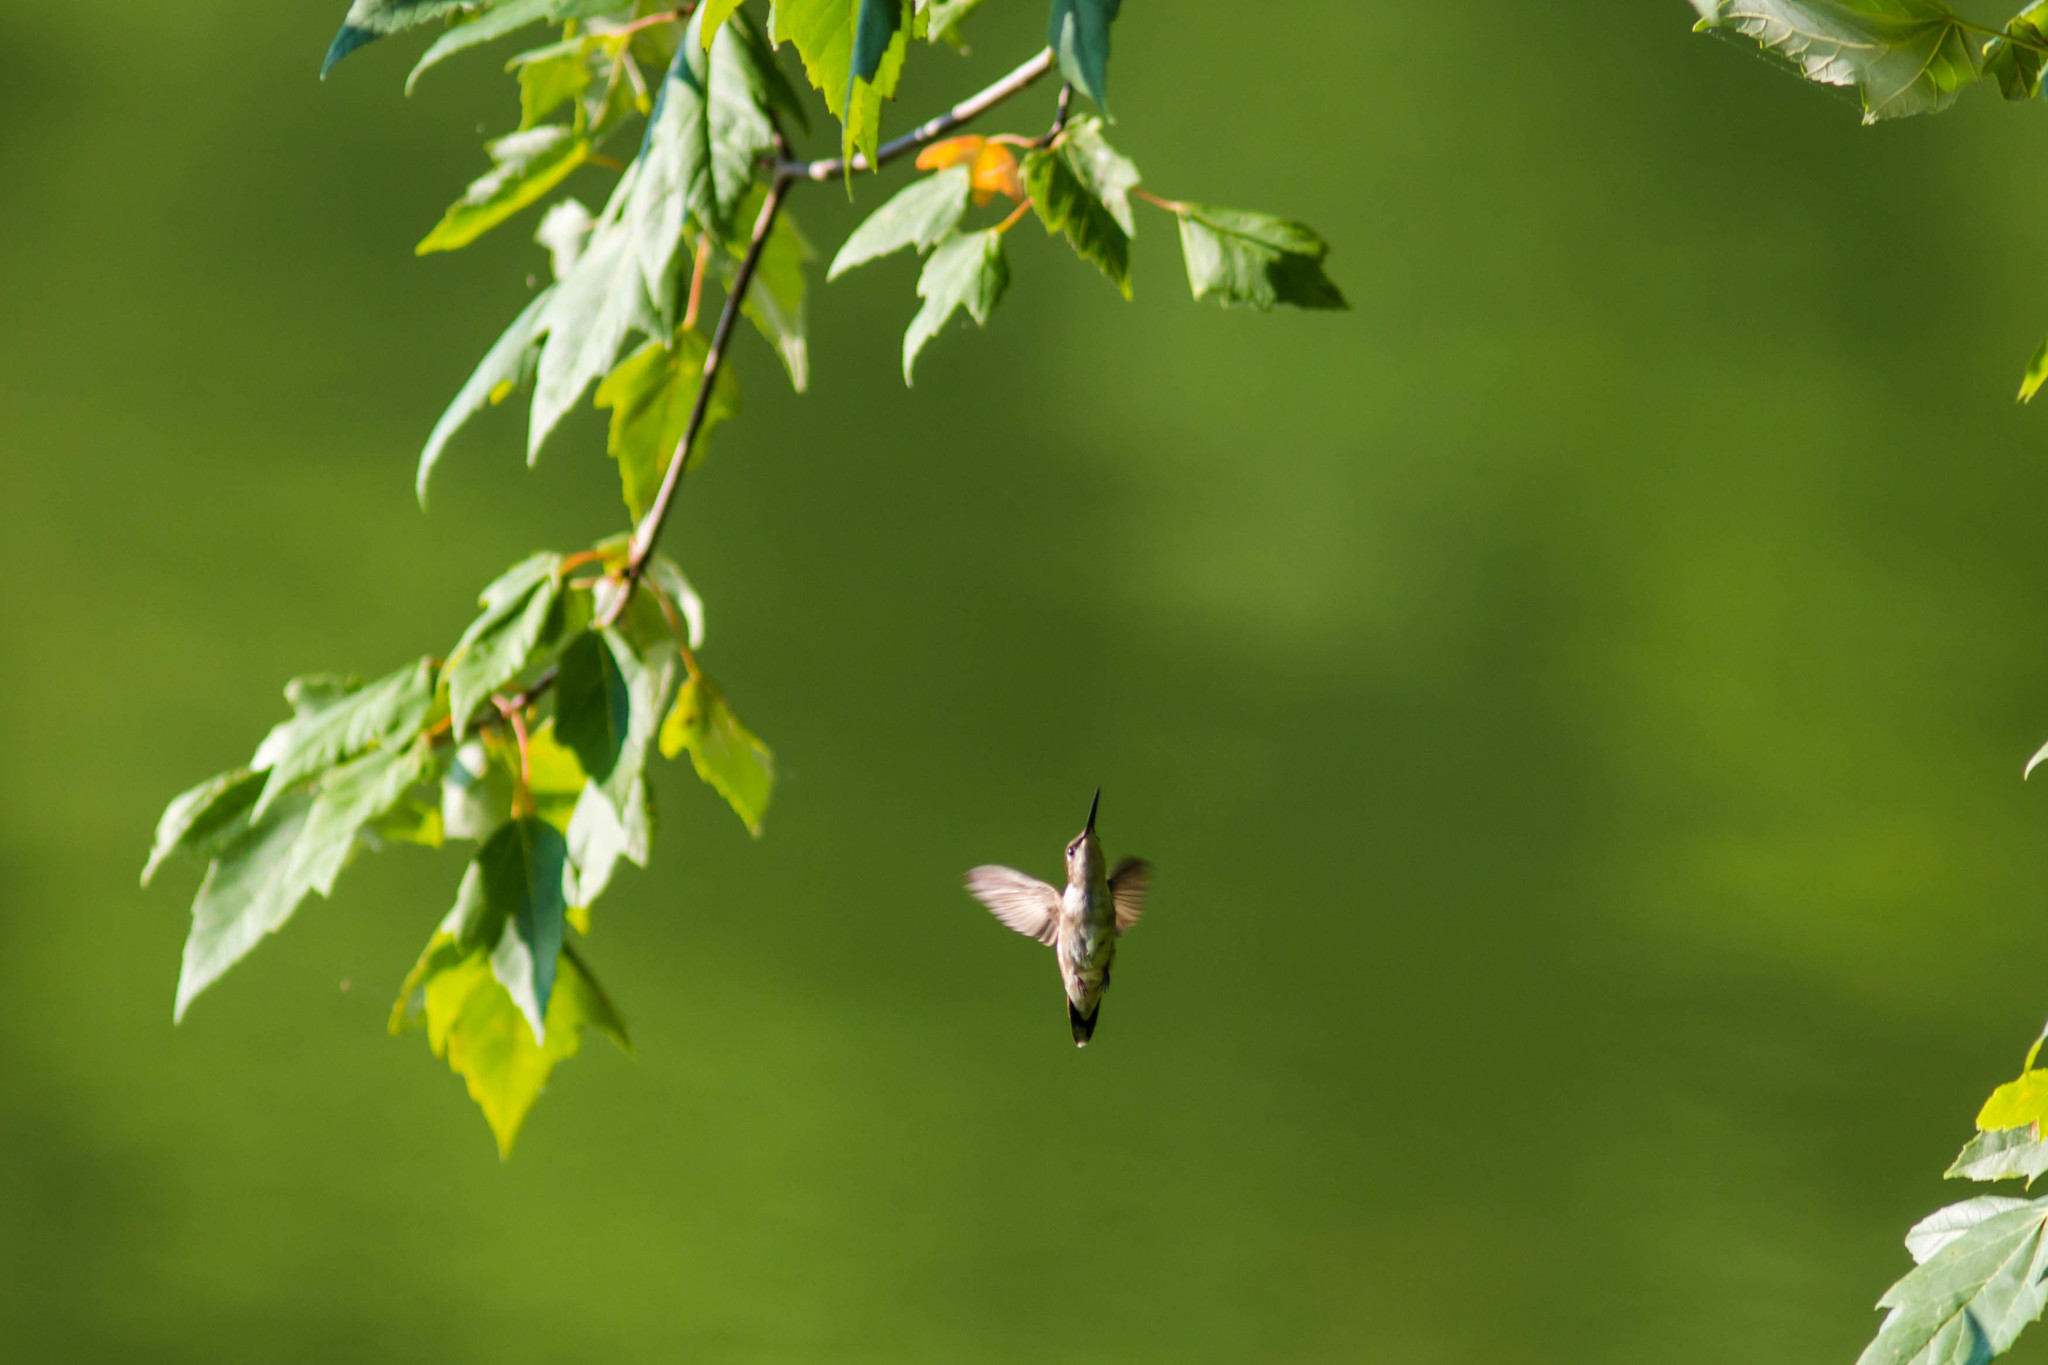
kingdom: Animalia
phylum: Chordata
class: Aves
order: Apodiformes
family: Trochilidae
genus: Archilochus
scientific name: Archilochus colubris
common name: Ruby-throated hummingbird
